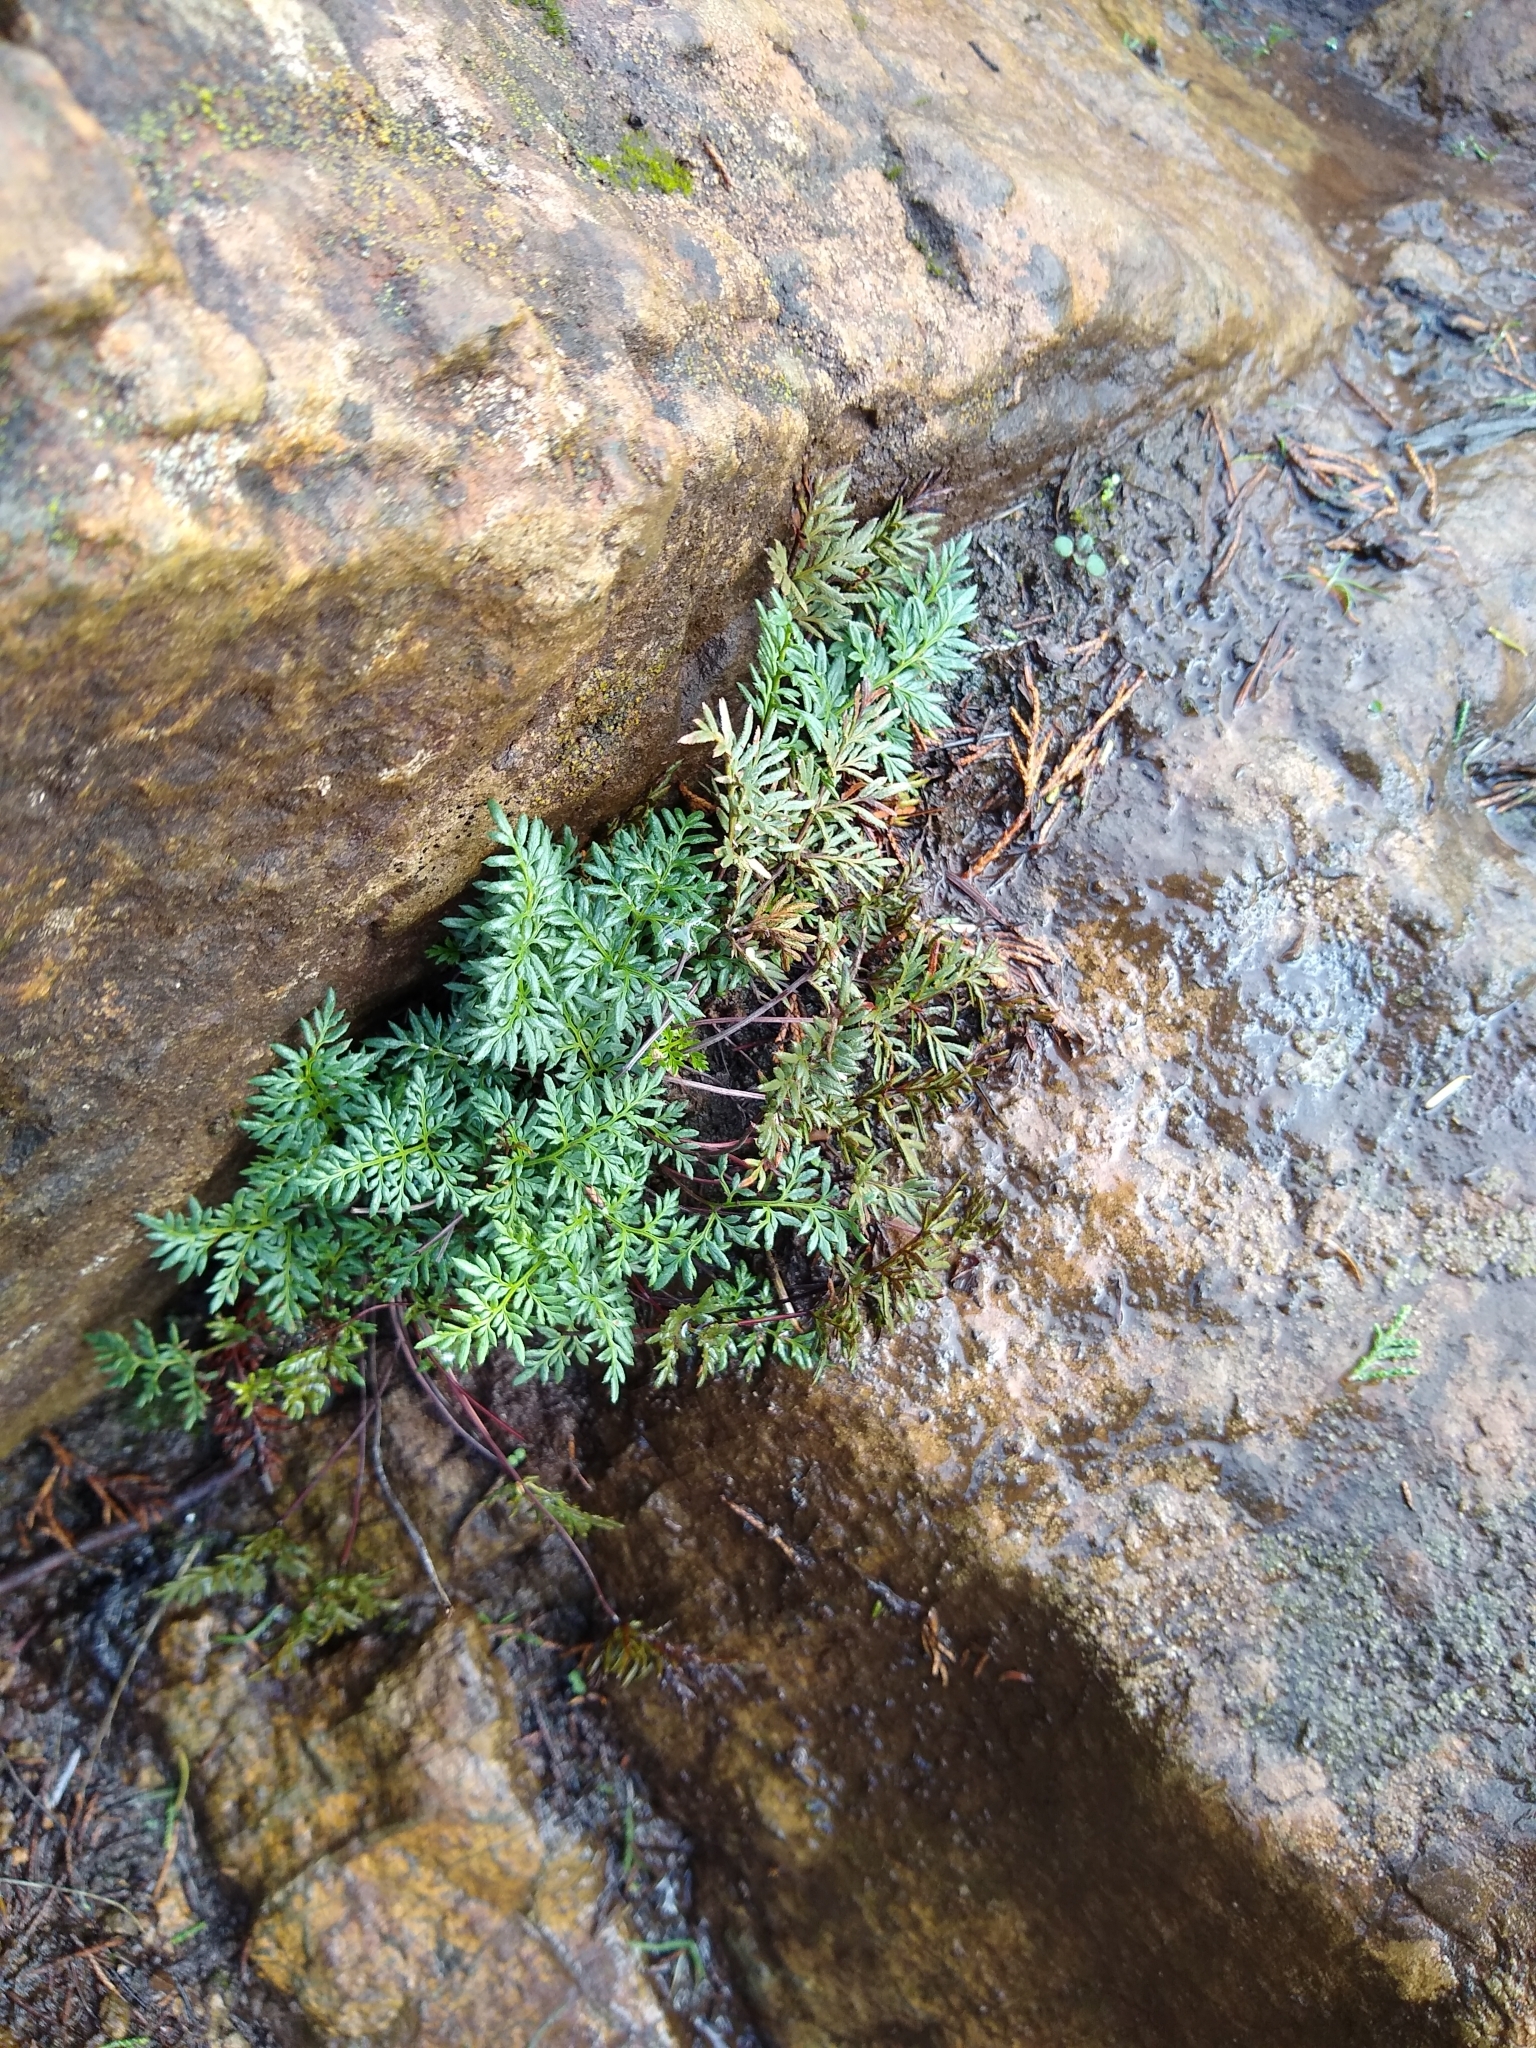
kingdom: Plantae
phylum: Tracheophyta
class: Polypodiopsida
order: Polypodiales
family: Pteridaceae
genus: Aspidotis
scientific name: Aspidotis densa
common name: Indian's dream
